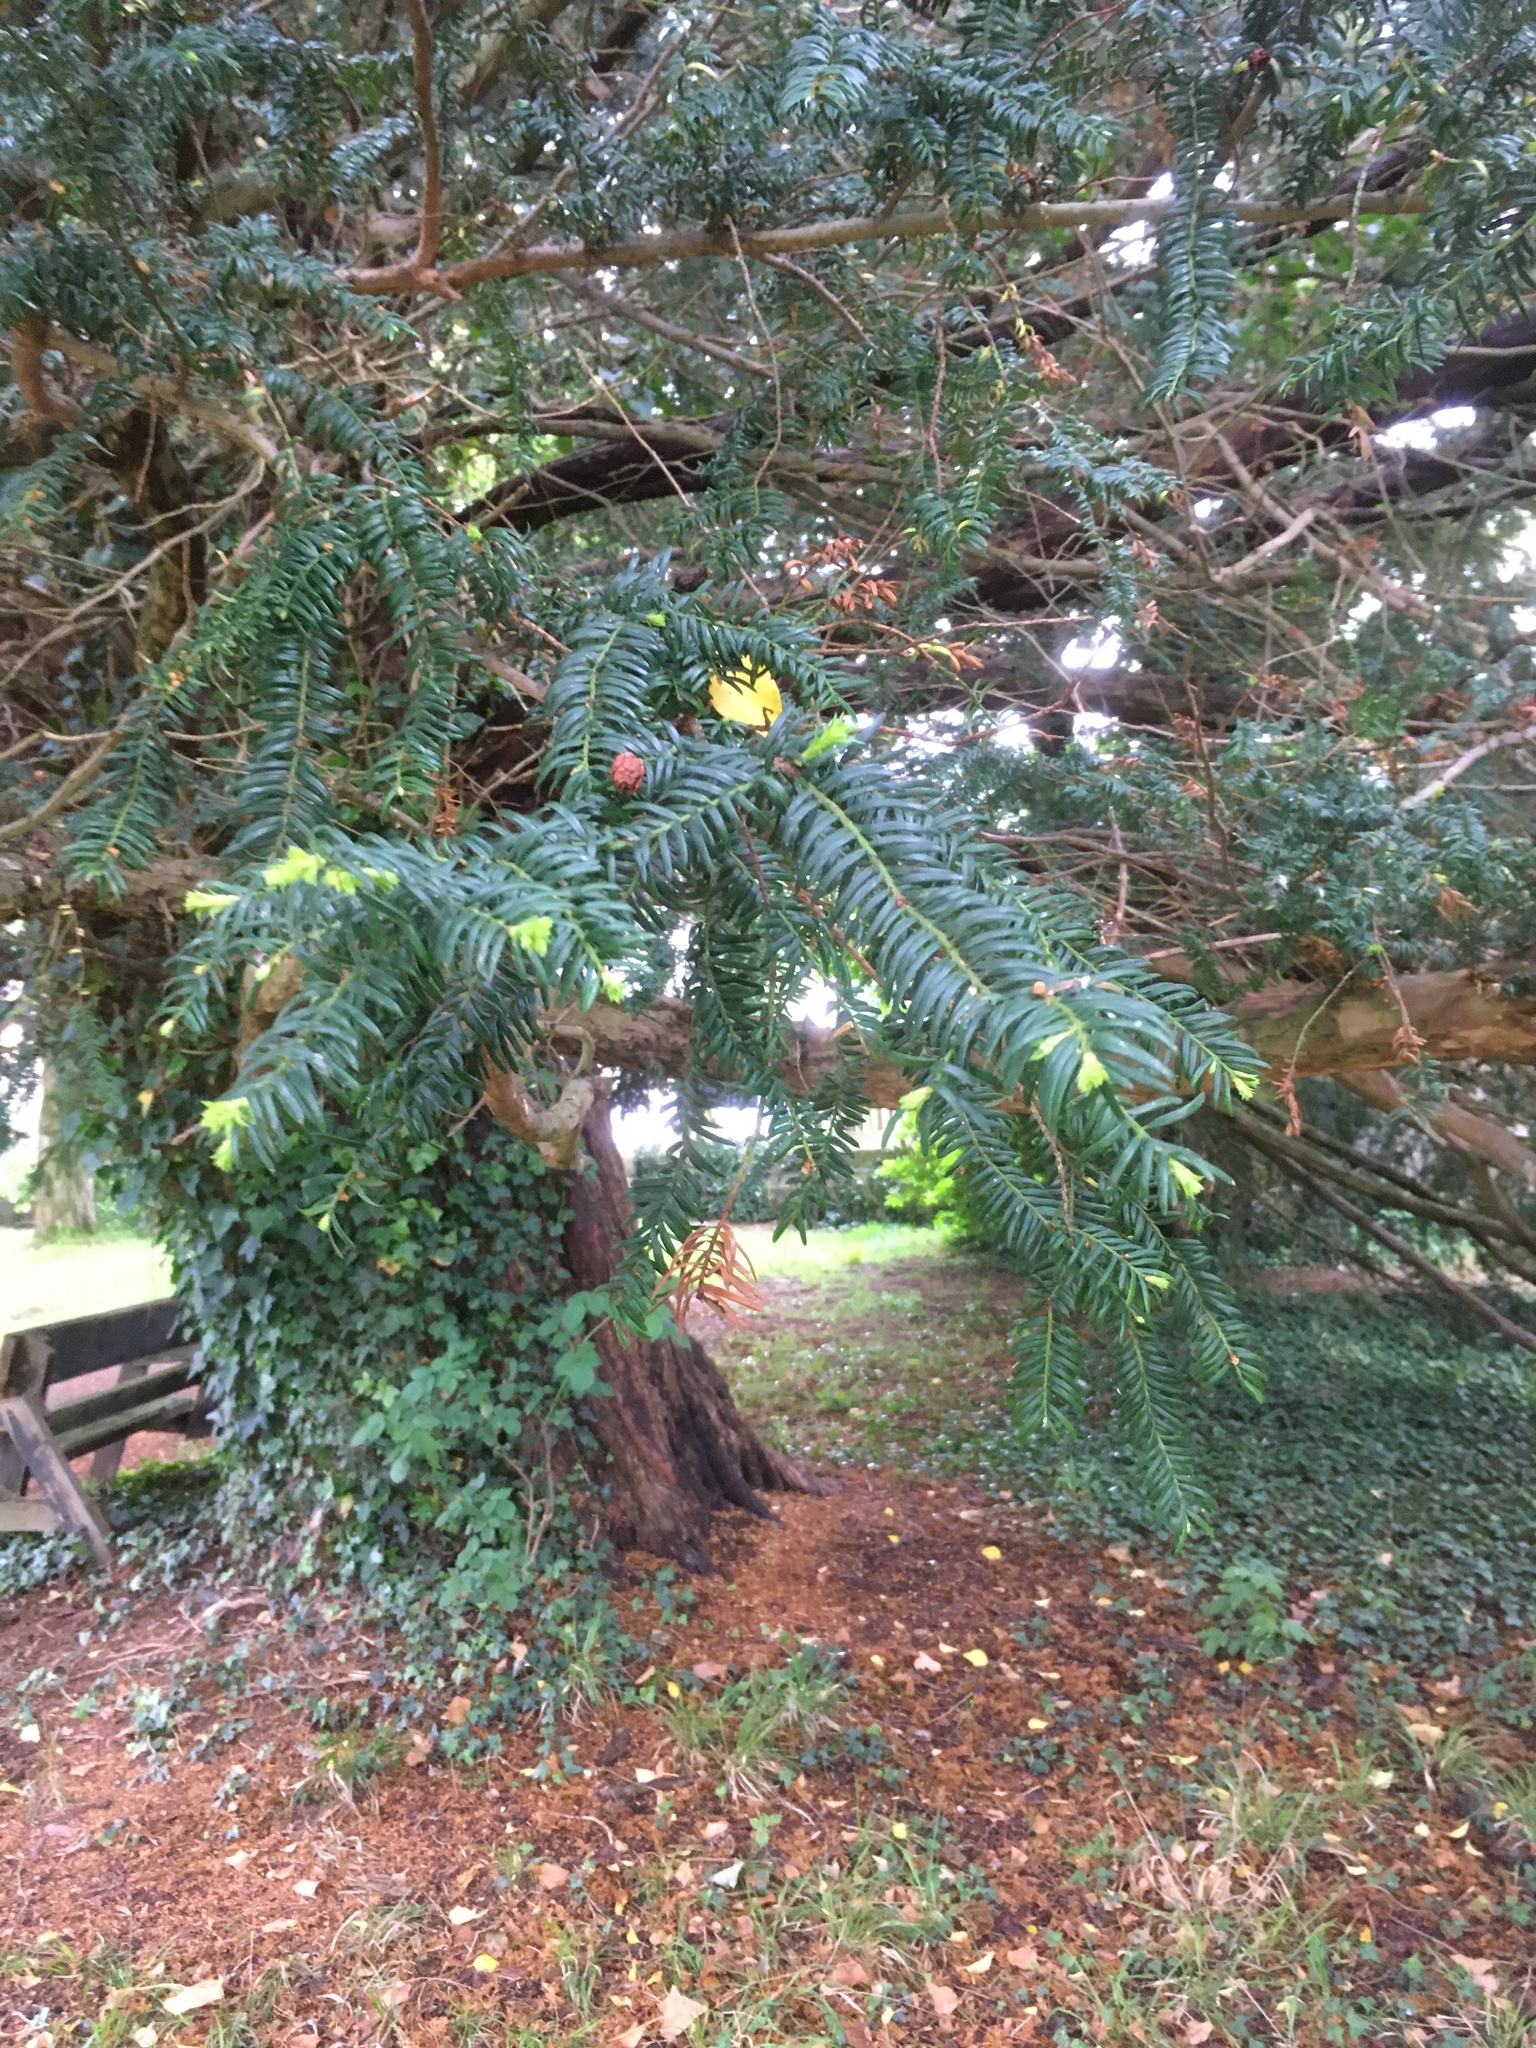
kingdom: Plantae
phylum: Tracheophyta
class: Pinopsida
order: Pinales
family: Taxaceae
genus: Taxus
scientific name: Taxus baccata
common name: Yew
